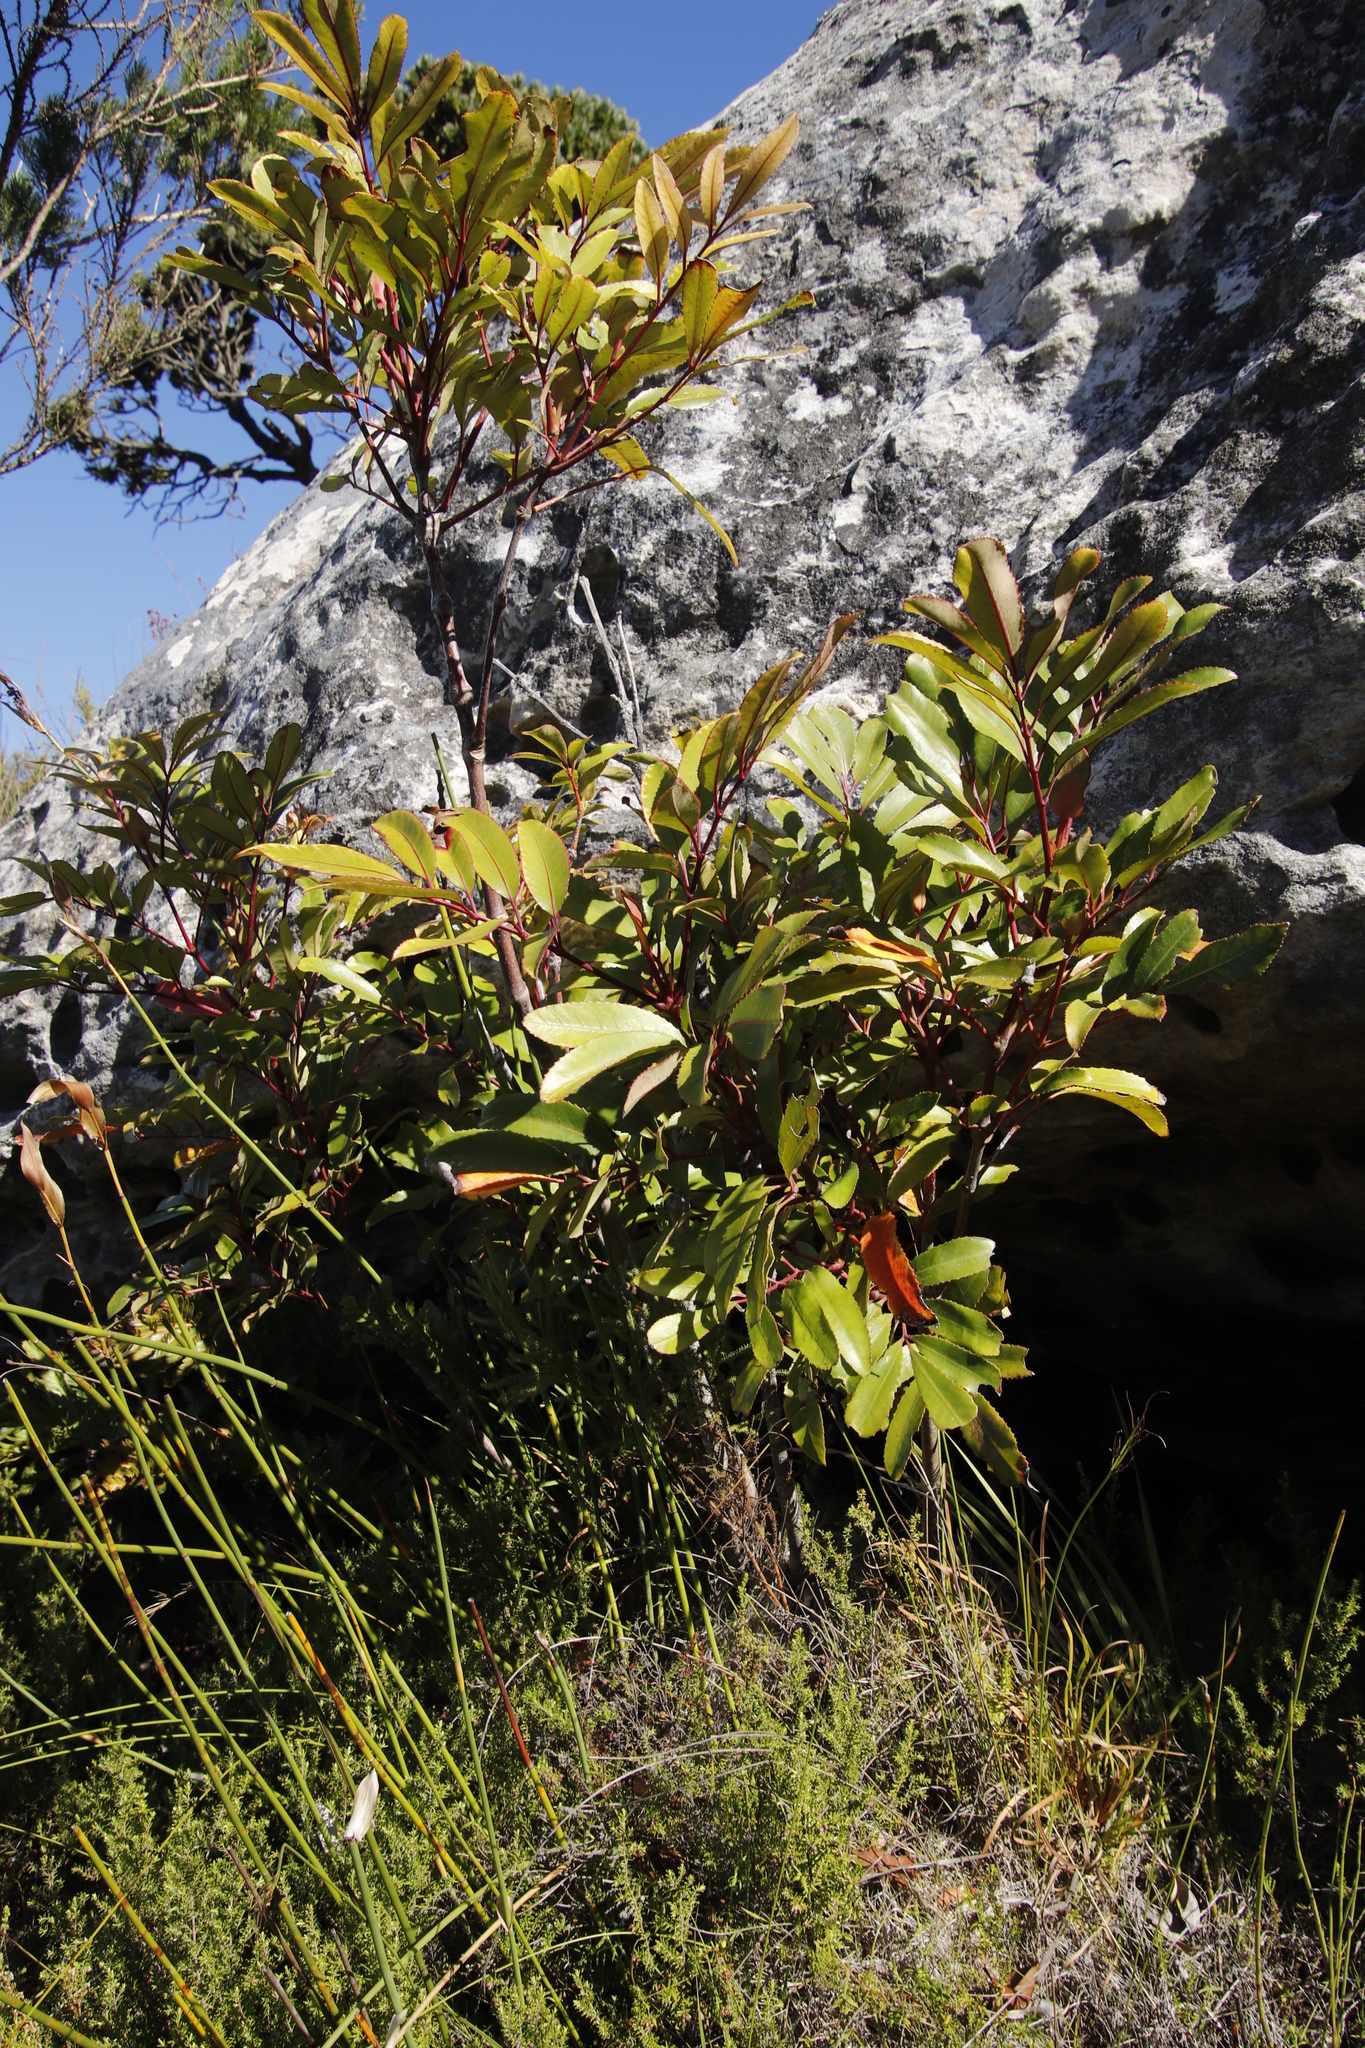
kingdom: Plantae
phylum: Tracheophyta
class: Magnoliopsida
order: Oxalidales
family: Cunoniaceae
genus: Cunonia
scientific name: Cunonia capensis
